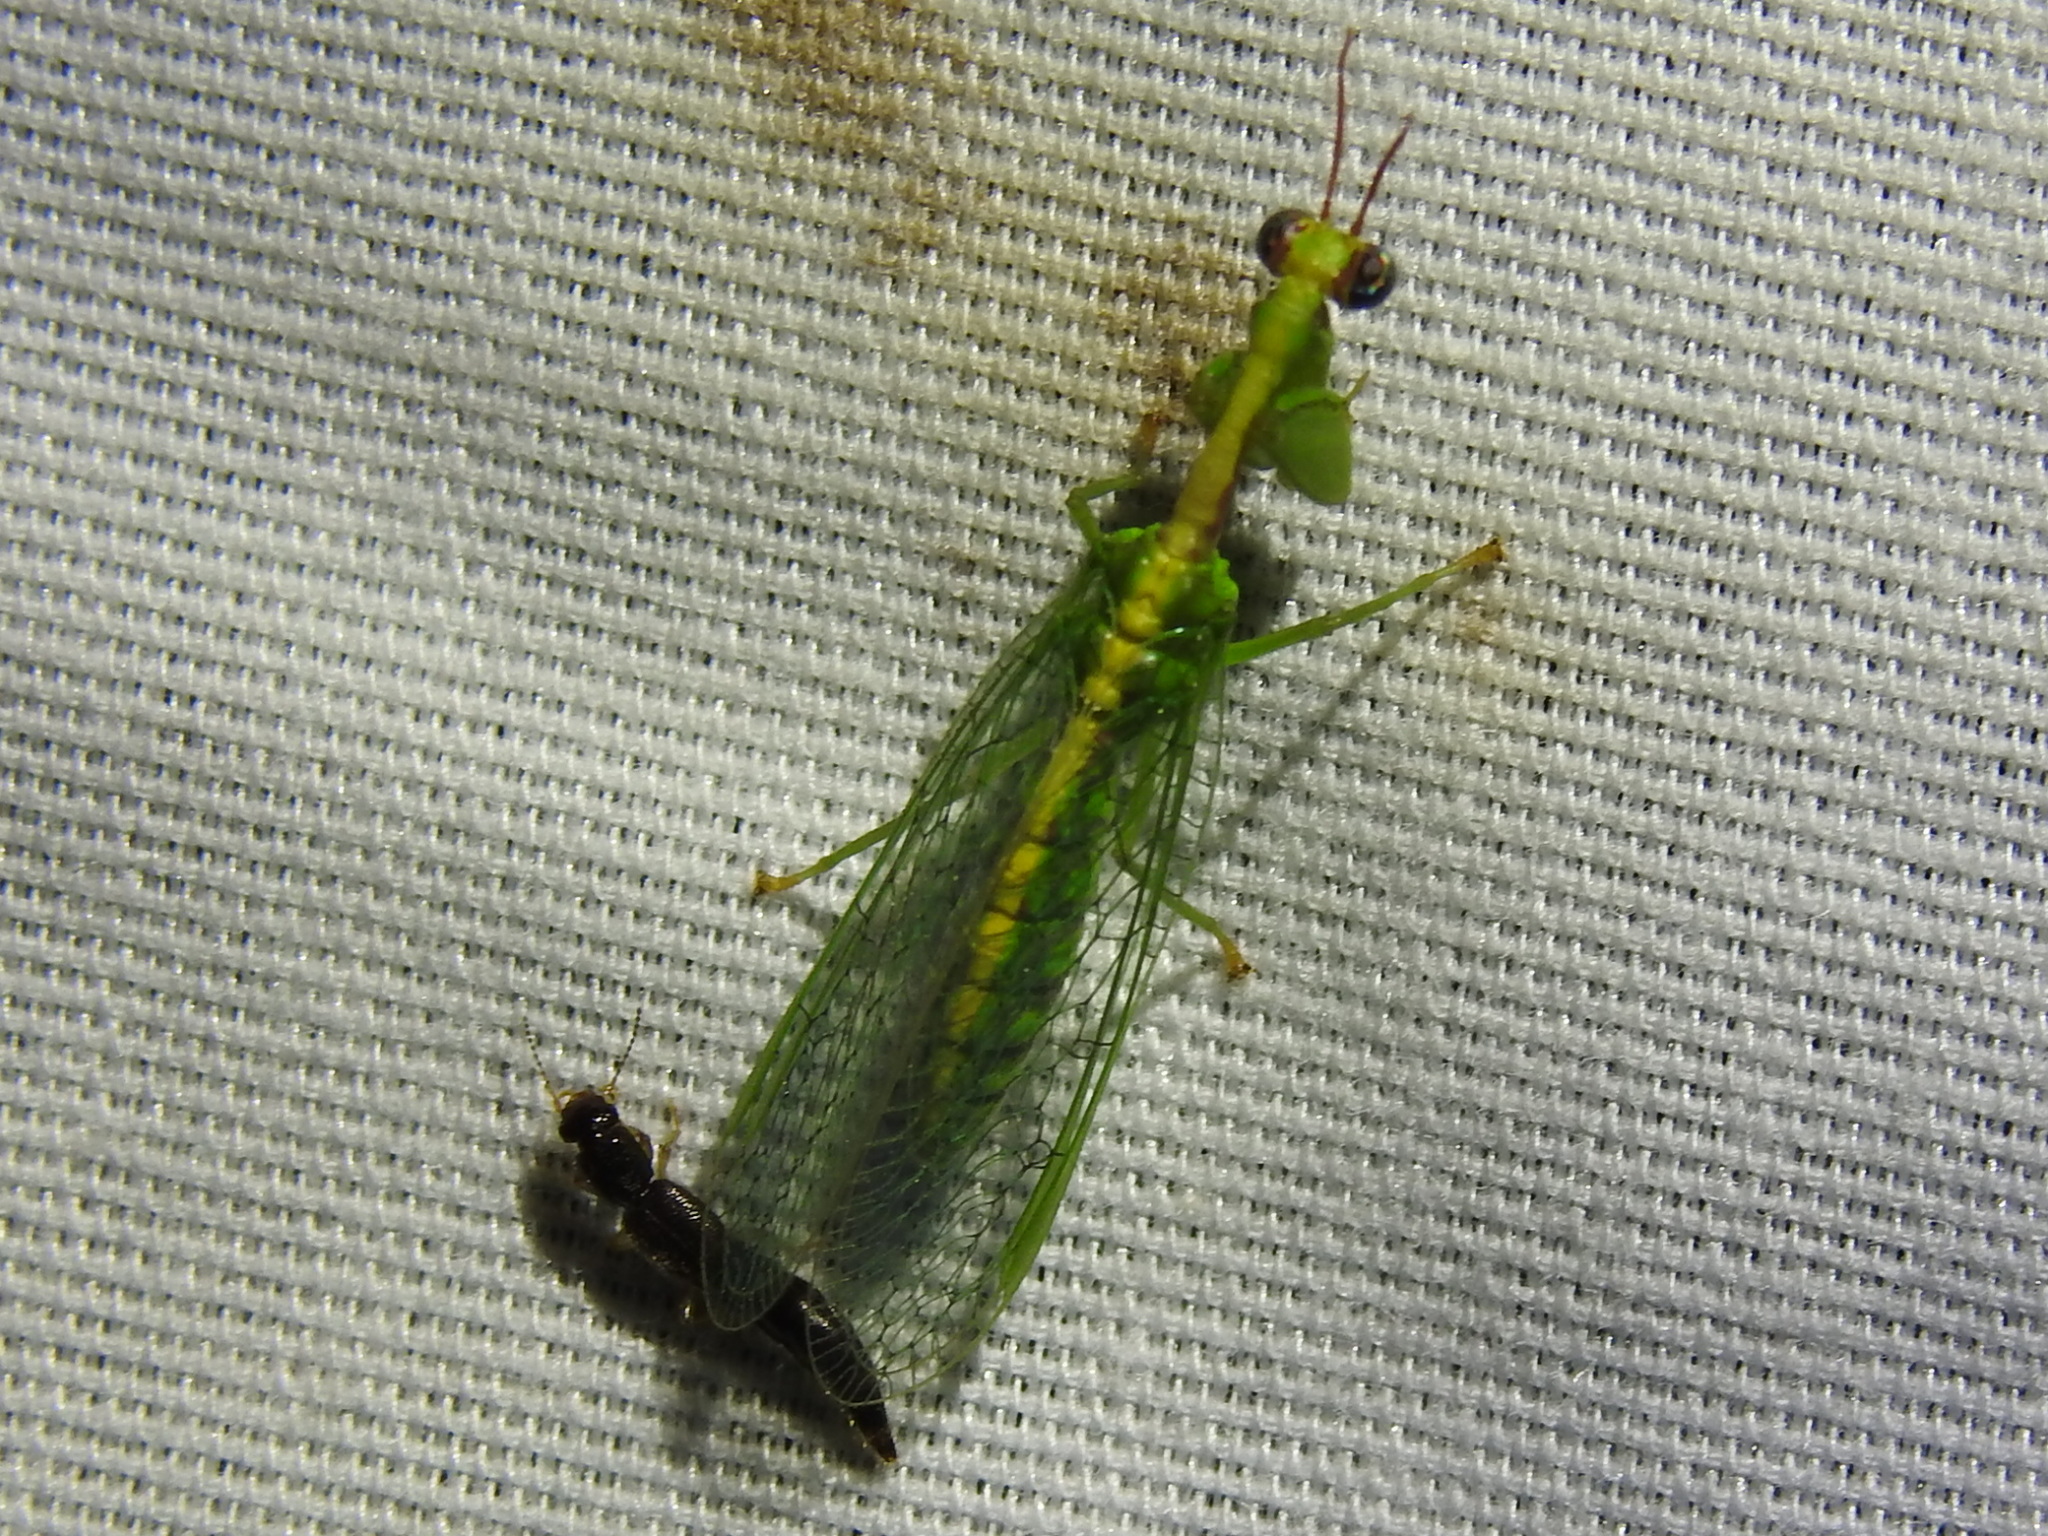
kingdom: Animalia
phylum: Arthropoda
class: Insecta
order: Neuroptera
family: Mantispidae
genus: Zeugomantispa
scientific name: Zeugomantispa minuta
